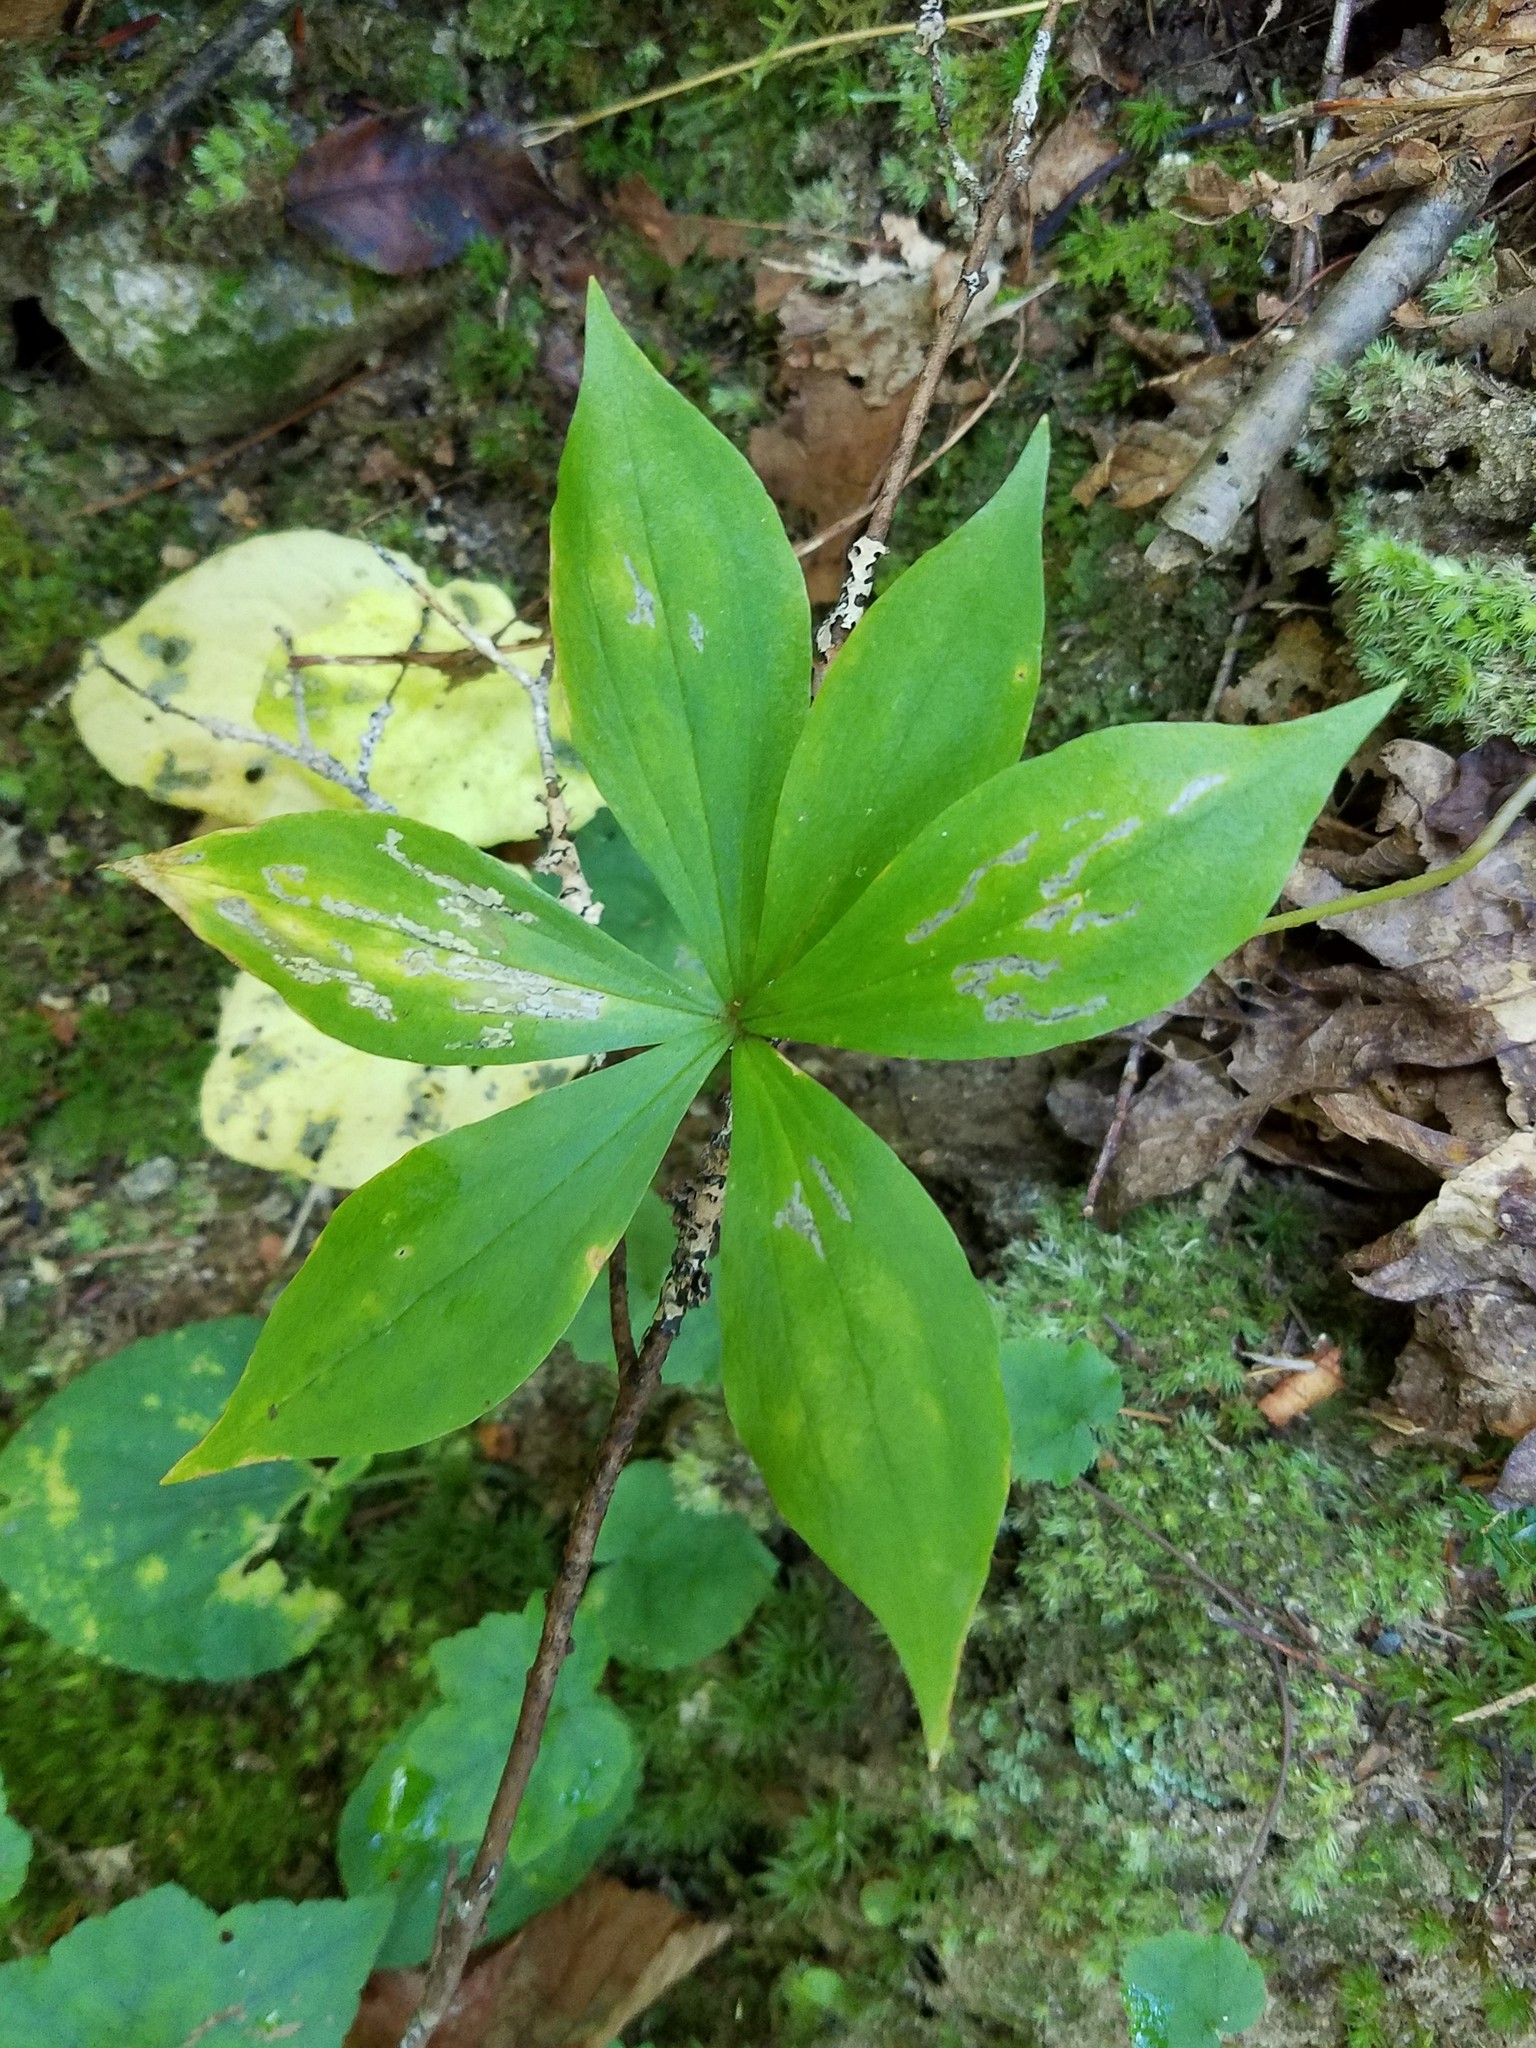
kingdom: Plantae
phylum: Tracheophyta
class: Liliopsida
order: Liliales
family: Liliaceae
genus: Medeola
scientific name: Medeola virginiana
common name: Indian cucumber-root
